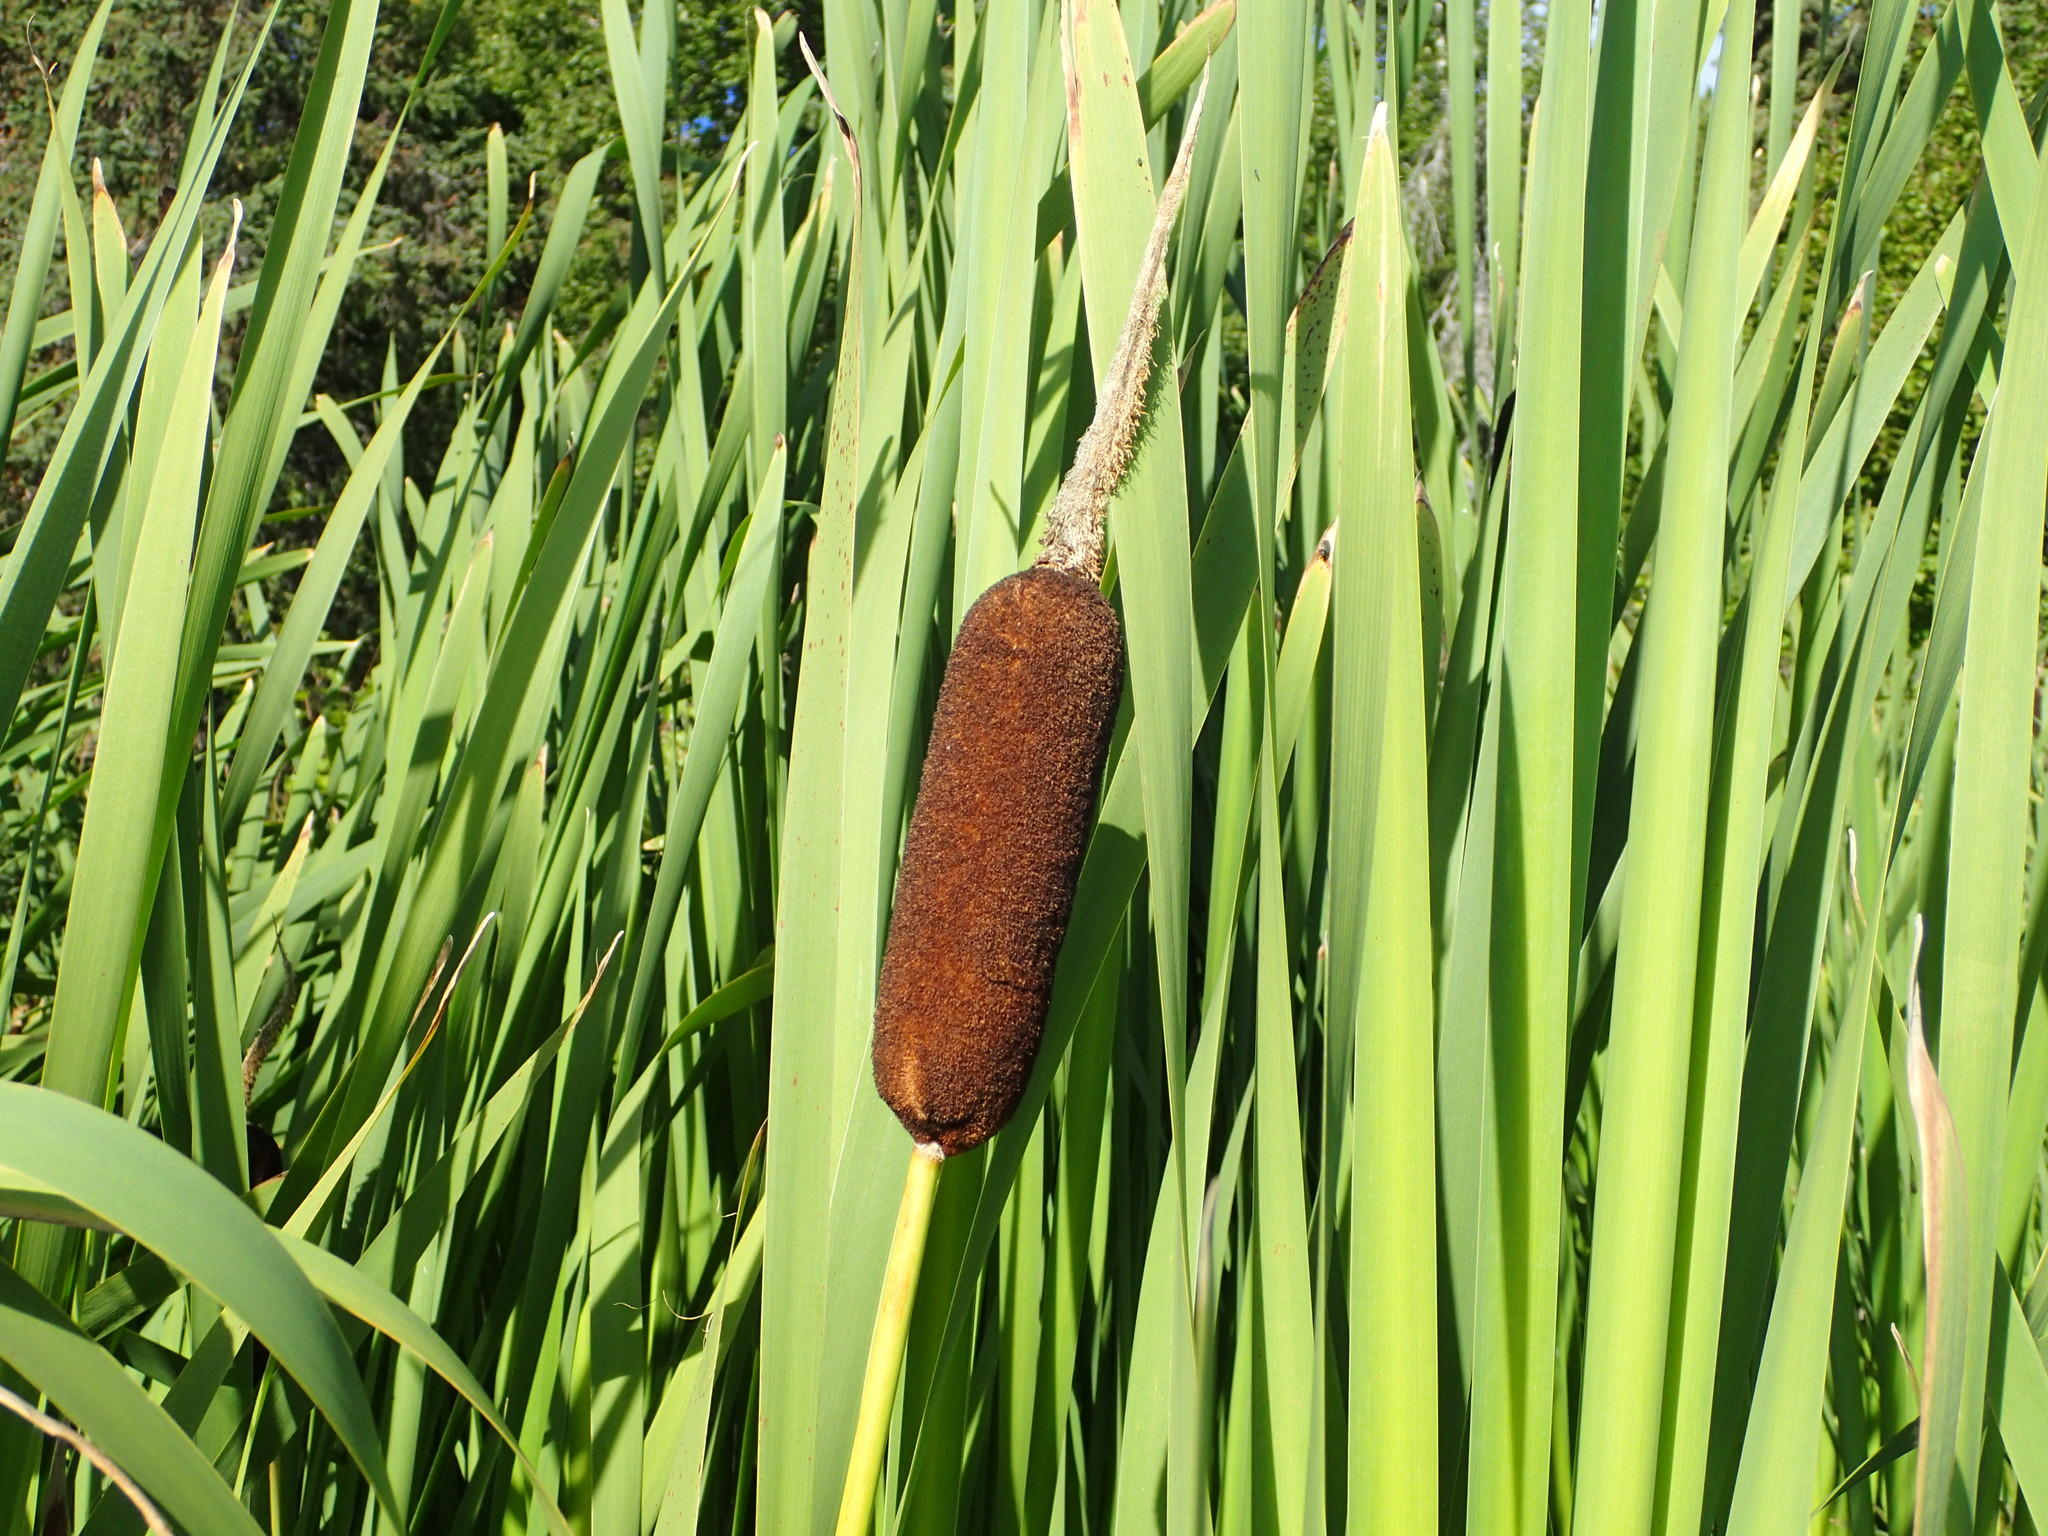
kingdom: Plantae
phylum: Tracheophyta
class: Liliopsida
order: Poales
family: Typhaceae
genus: Typha
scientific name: Typha latifolia
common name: Broadleaf cattail
